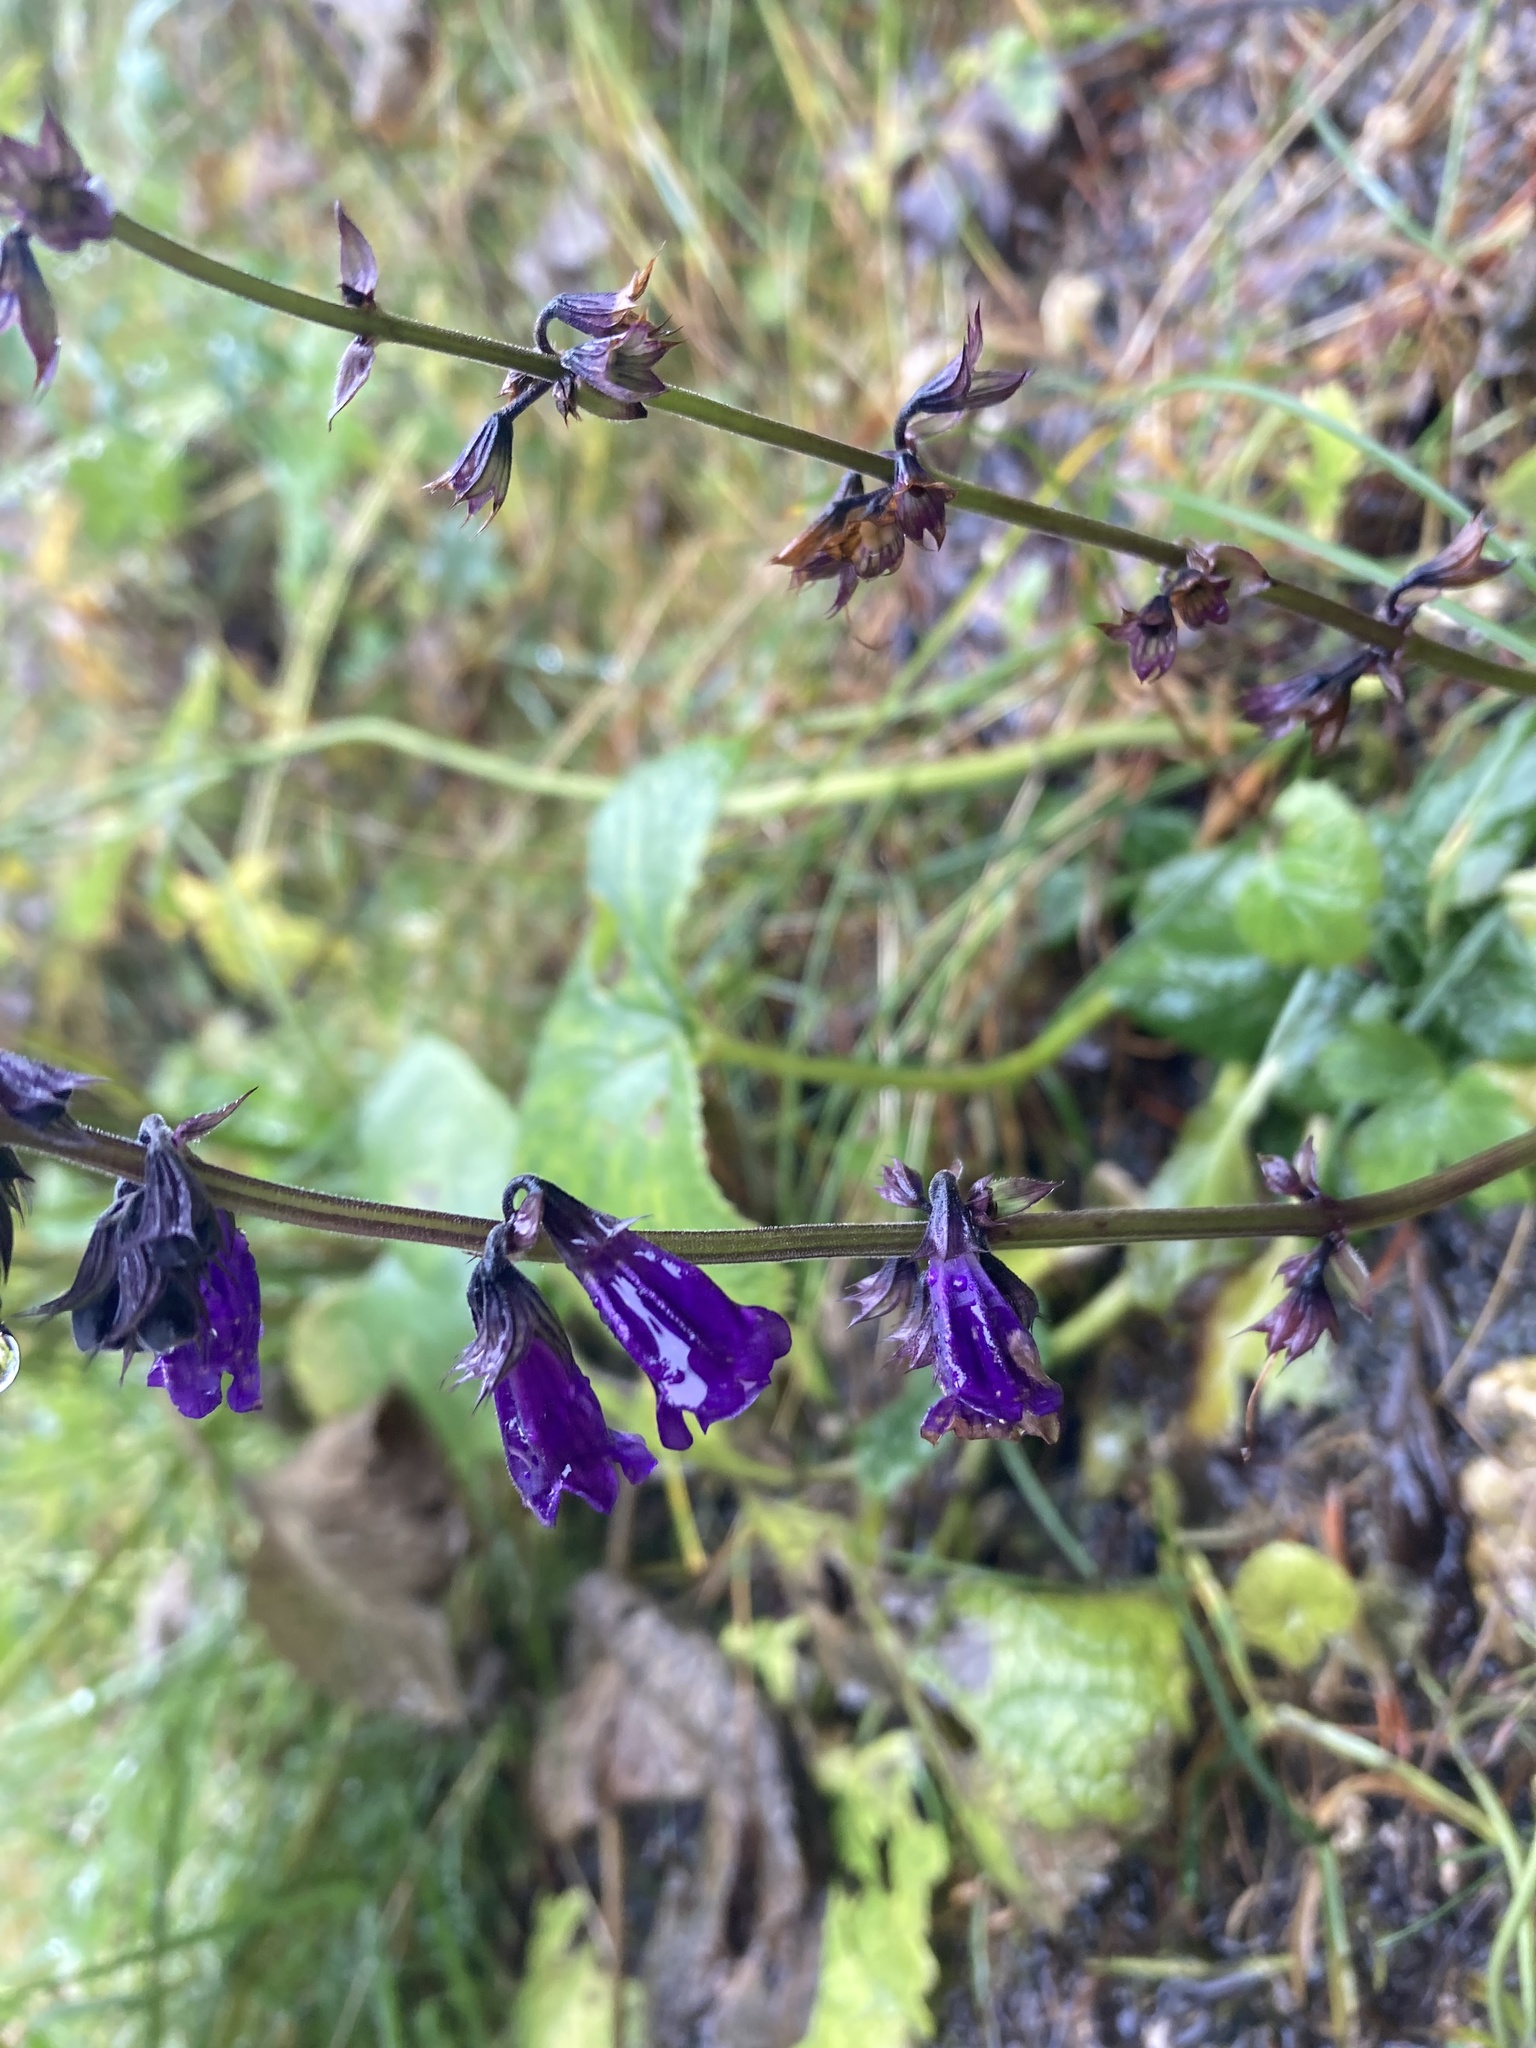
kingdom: Plantae
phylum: Tracheophyta
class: Magnoliopsida
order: Lamiales
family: Lamiaceae
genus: Horminum
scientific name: Horminum pyrenaicum
